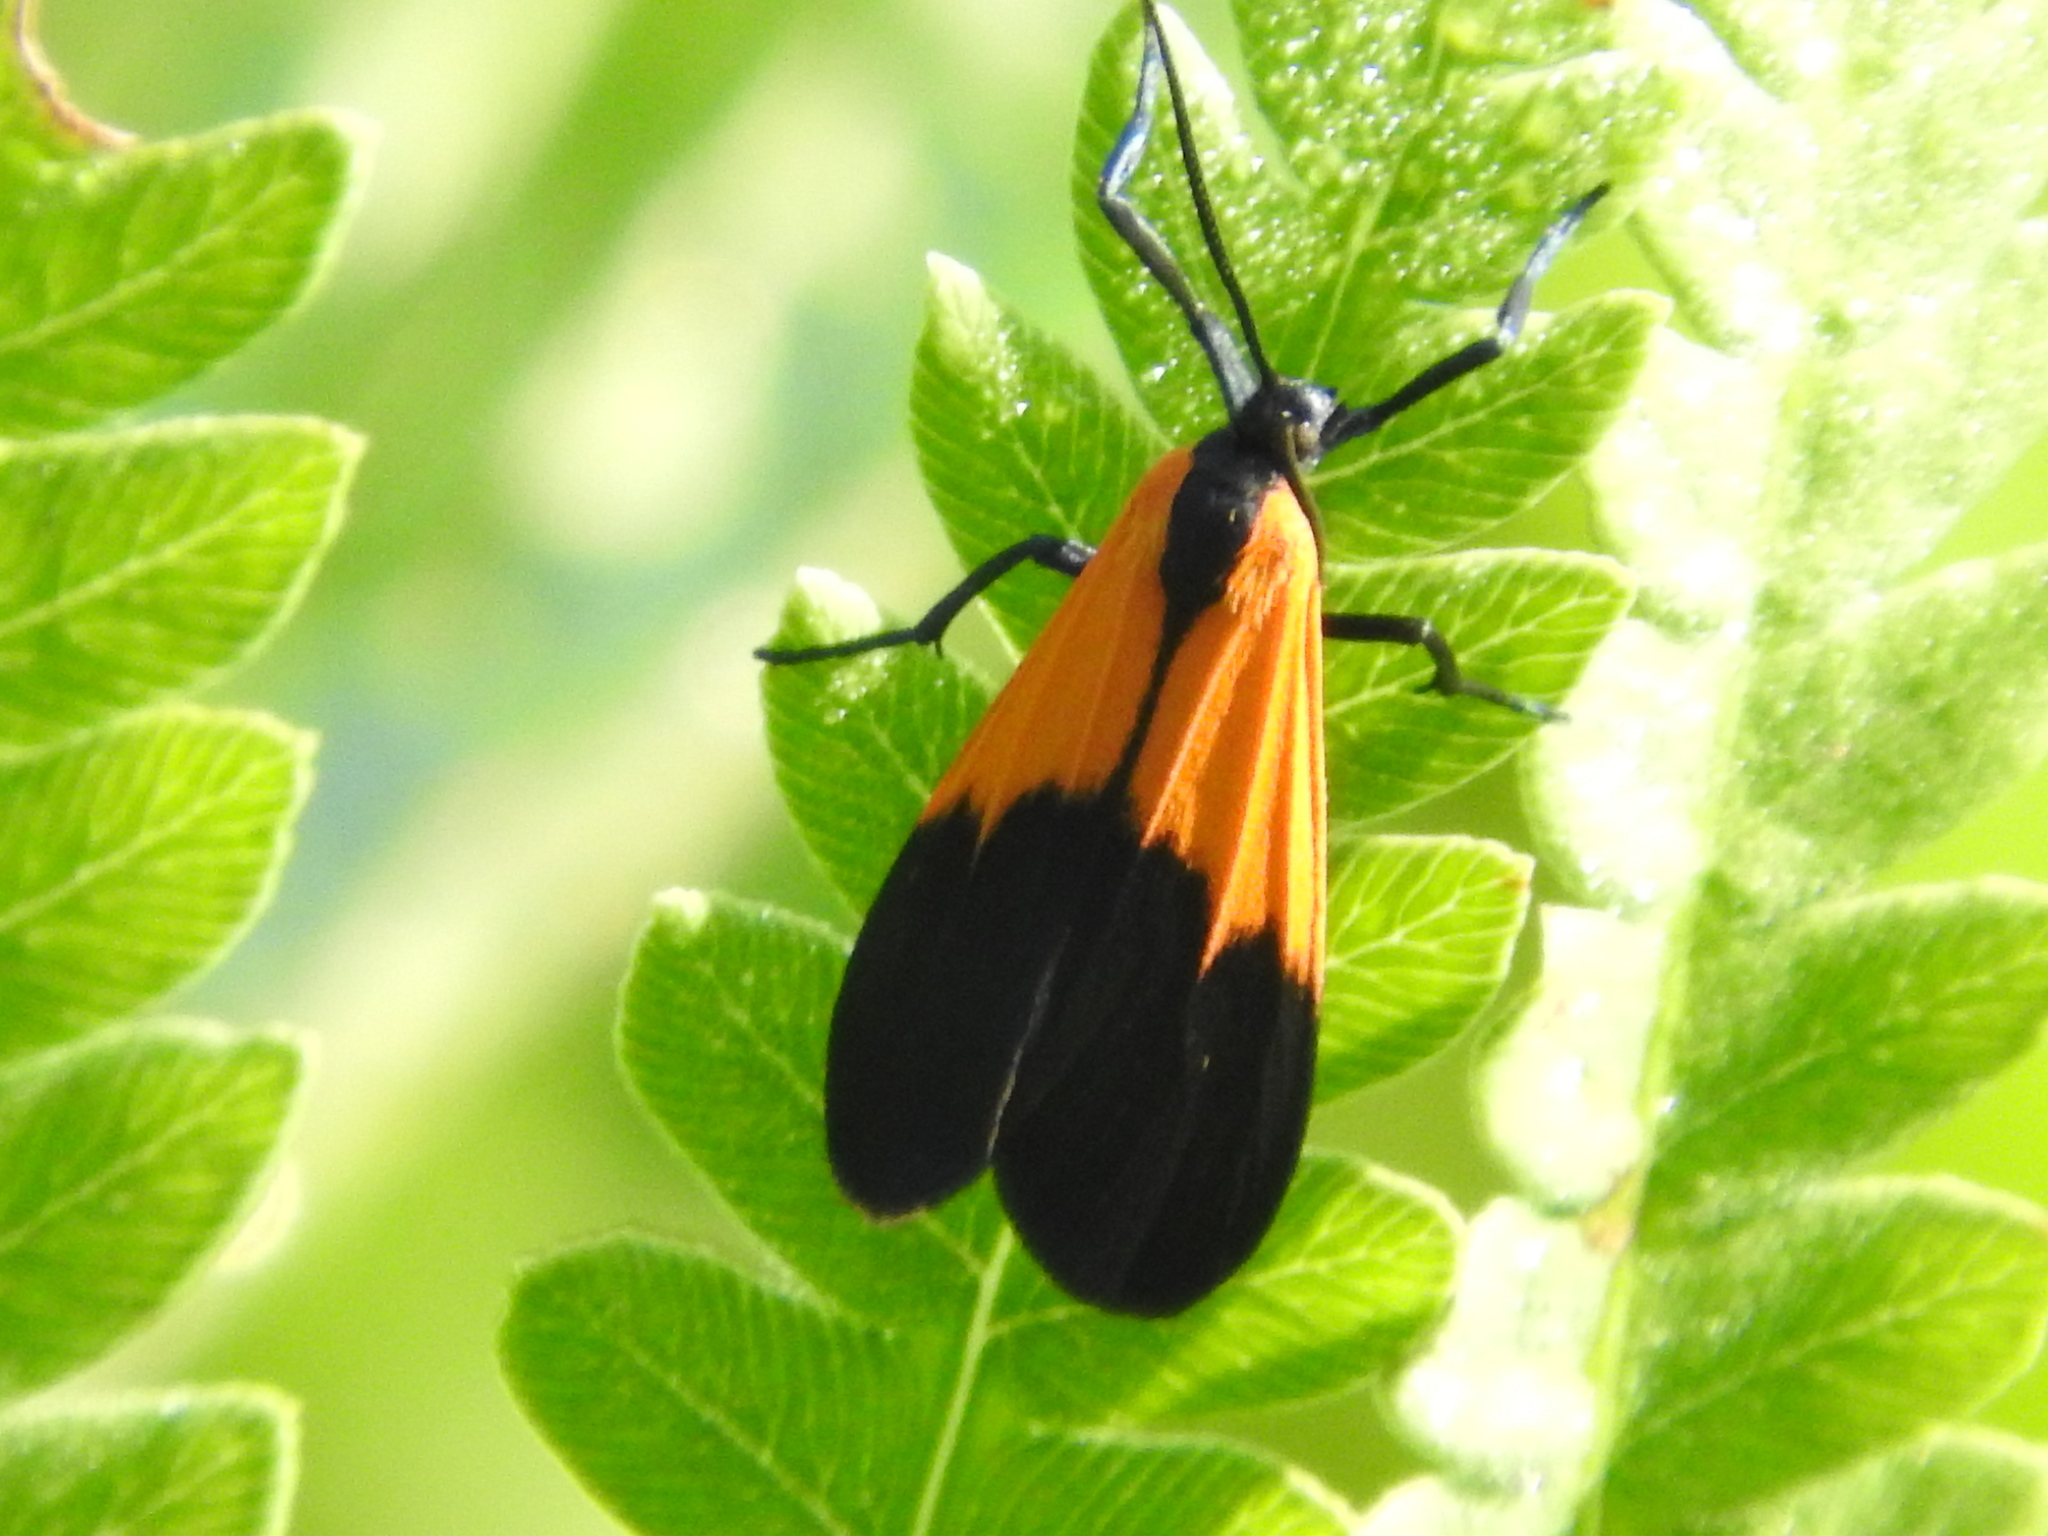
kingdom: Animalia
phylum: Arthropoda
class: Insecta
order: Lepidoptera
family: Erebidae
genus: Lycomorpha
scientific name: Lycomorpha pholus
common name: Black-and-yellow lichen moth
